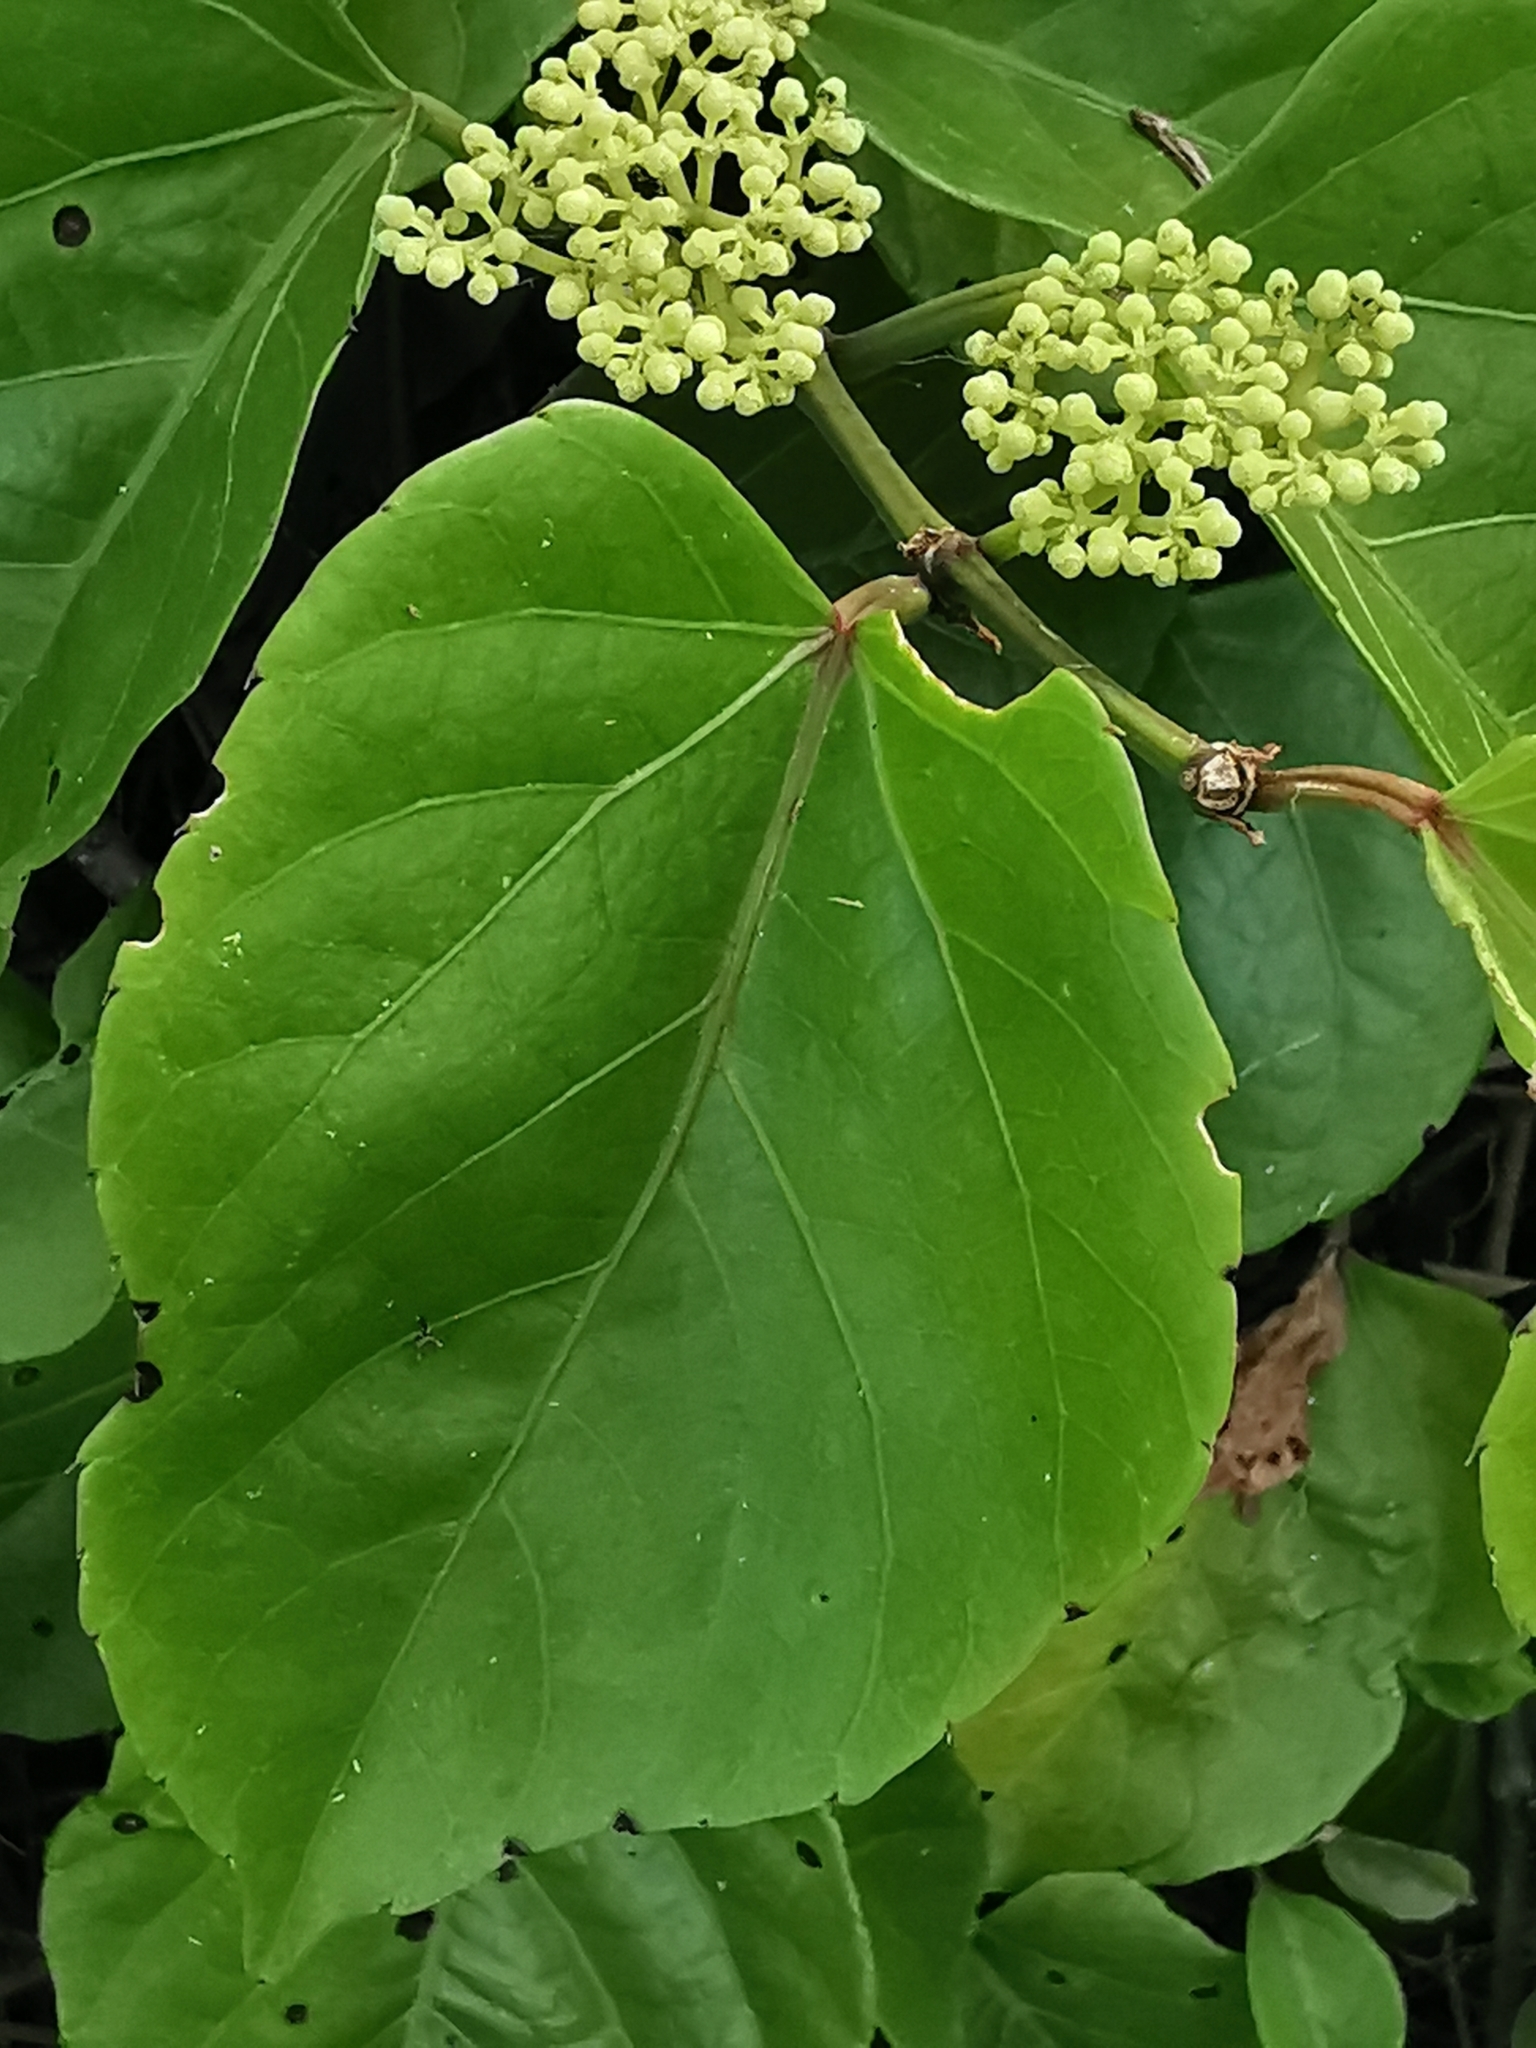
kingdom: Plantae
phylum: Tracheophyta
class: Magnoliopsida
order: Vitales
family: Vitaceae
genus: Cissus
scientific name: Cissus verticillata
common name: Princess vine
